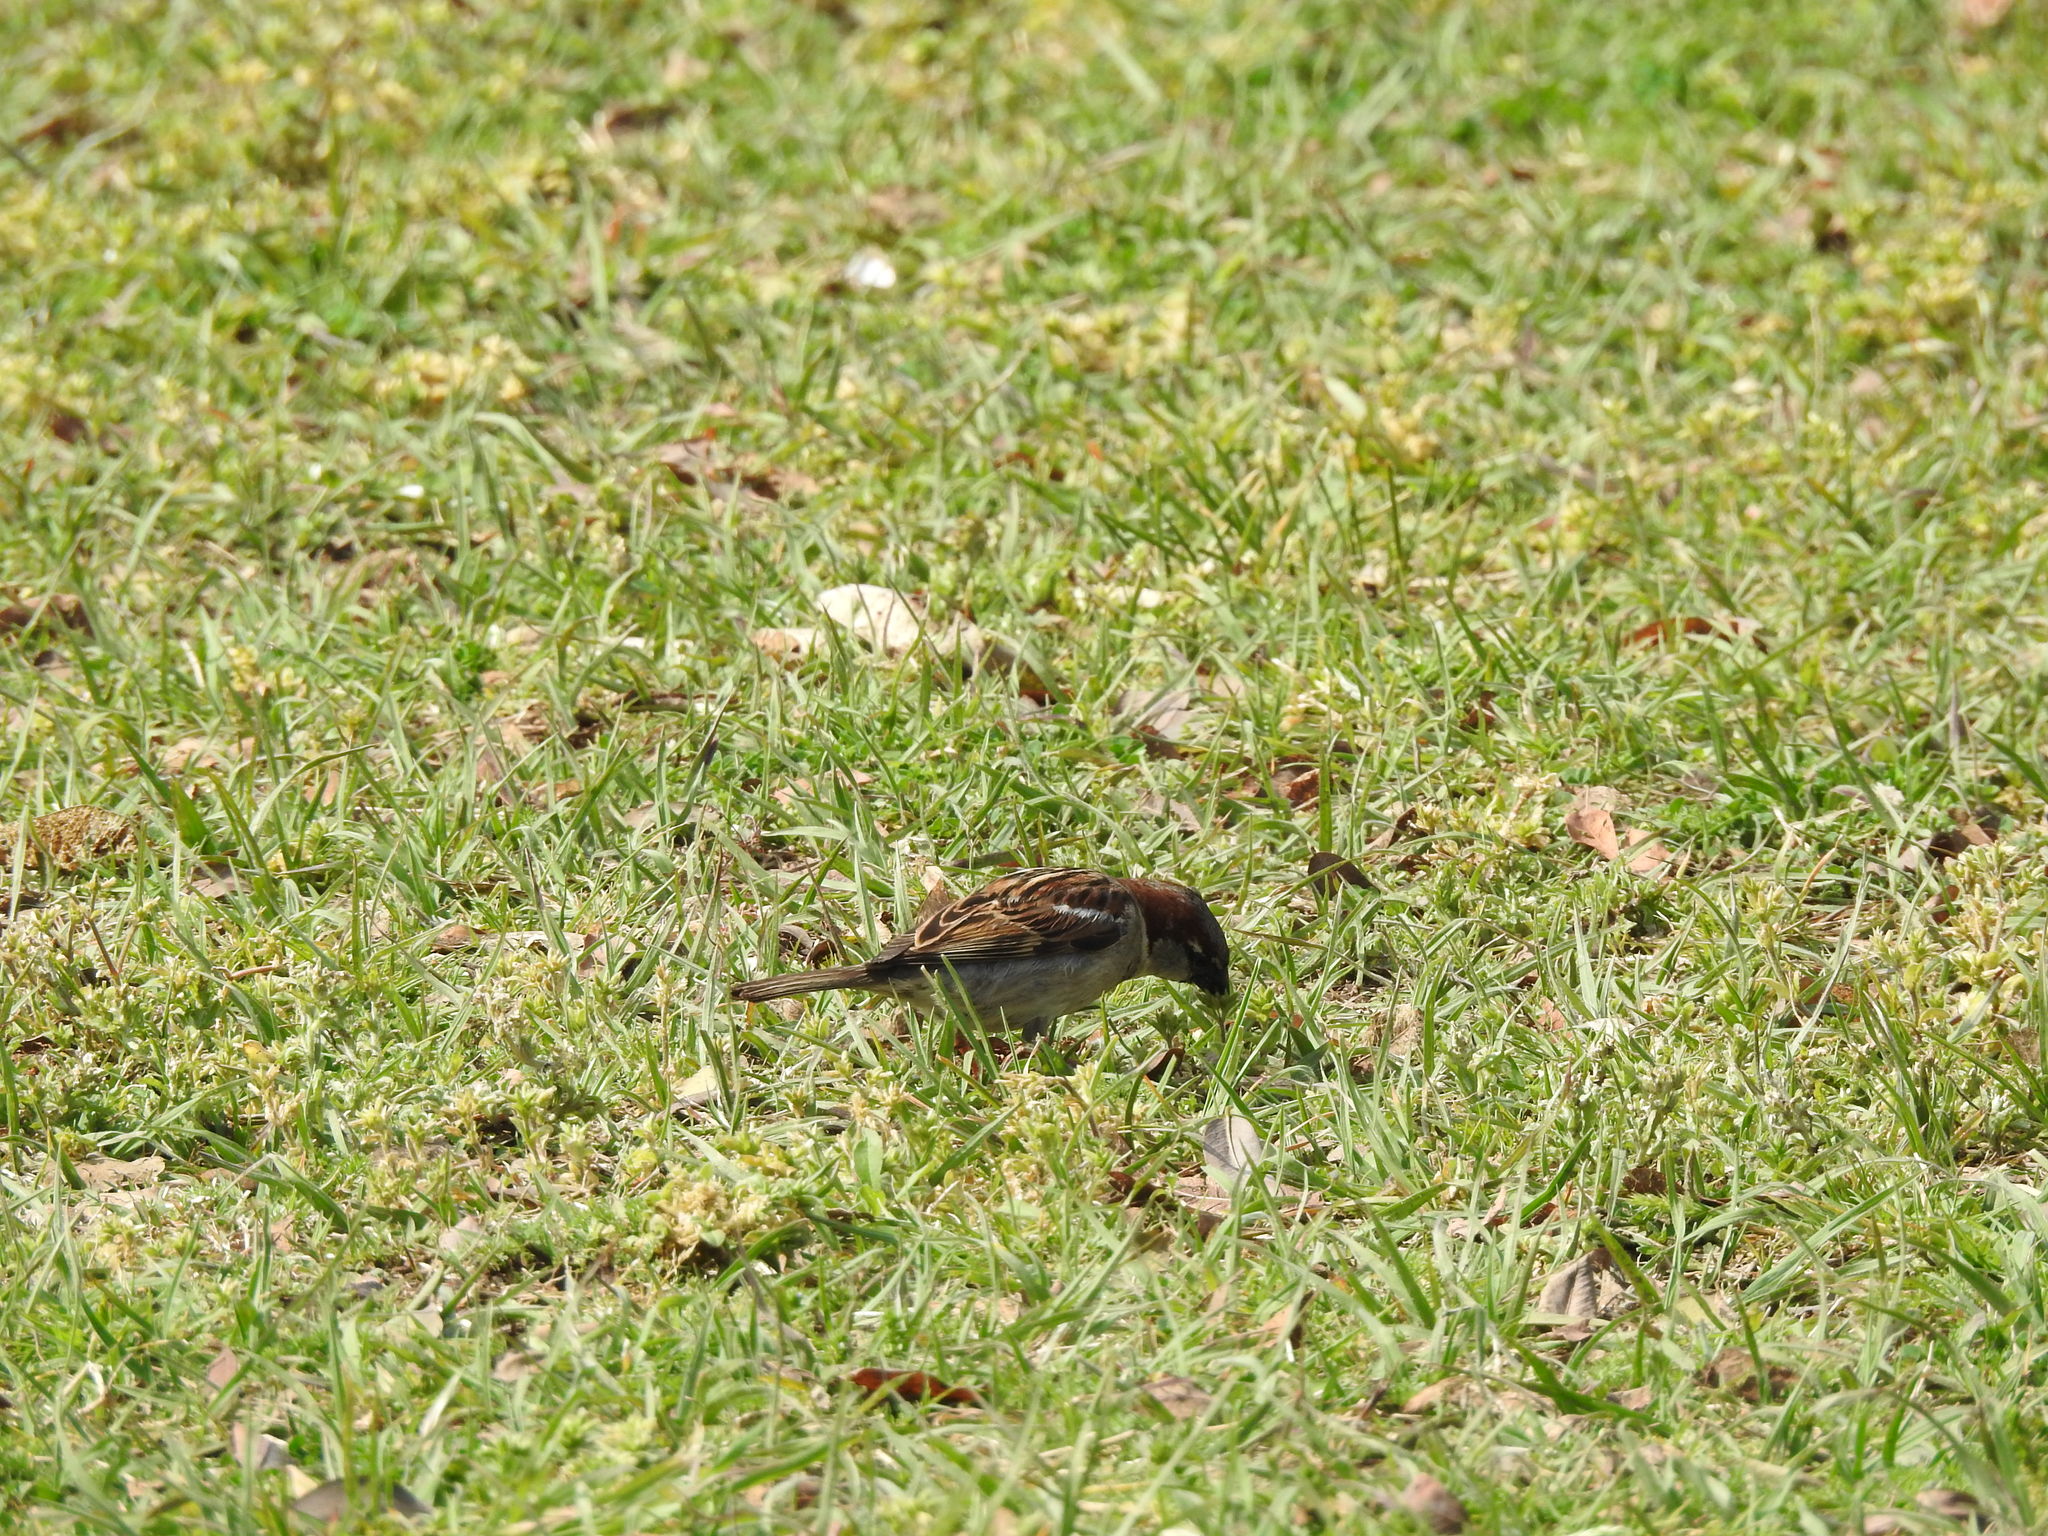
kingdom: Animalia
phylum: Chordata
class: Aves
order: Passeriformes
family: Passeridae
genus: Passer
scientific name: Passer domesticus
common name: House sparrow
